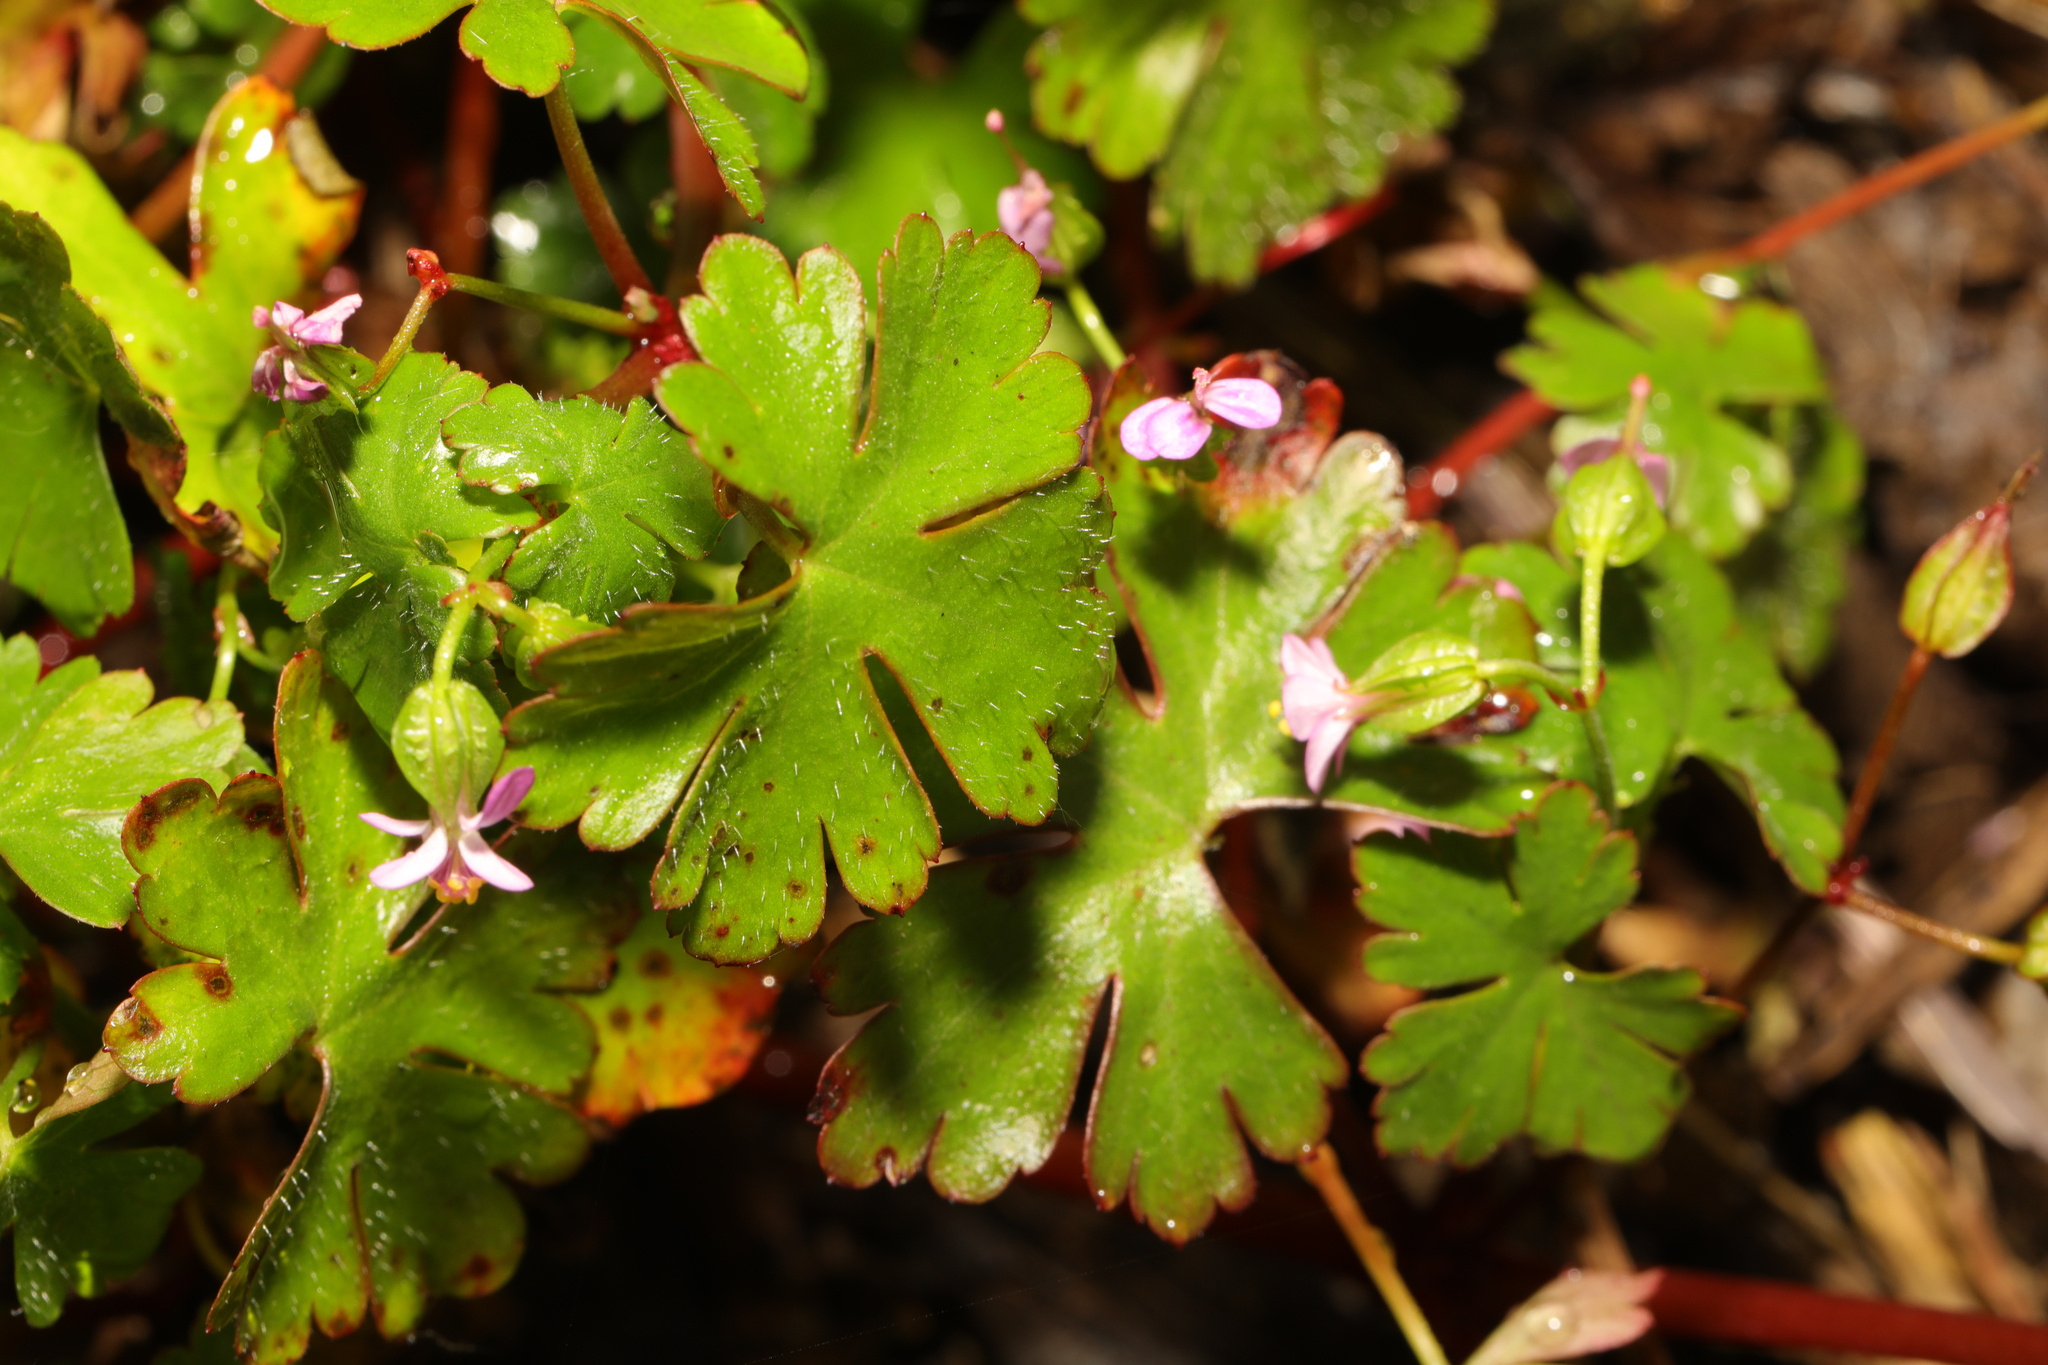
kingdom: Plantae
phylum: Tracheophyta
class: Magnoliopsida
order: Geraniales
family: Geraniaceae
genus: Geranium
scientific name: Geranium lucidum
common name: Shining crane's-bill
